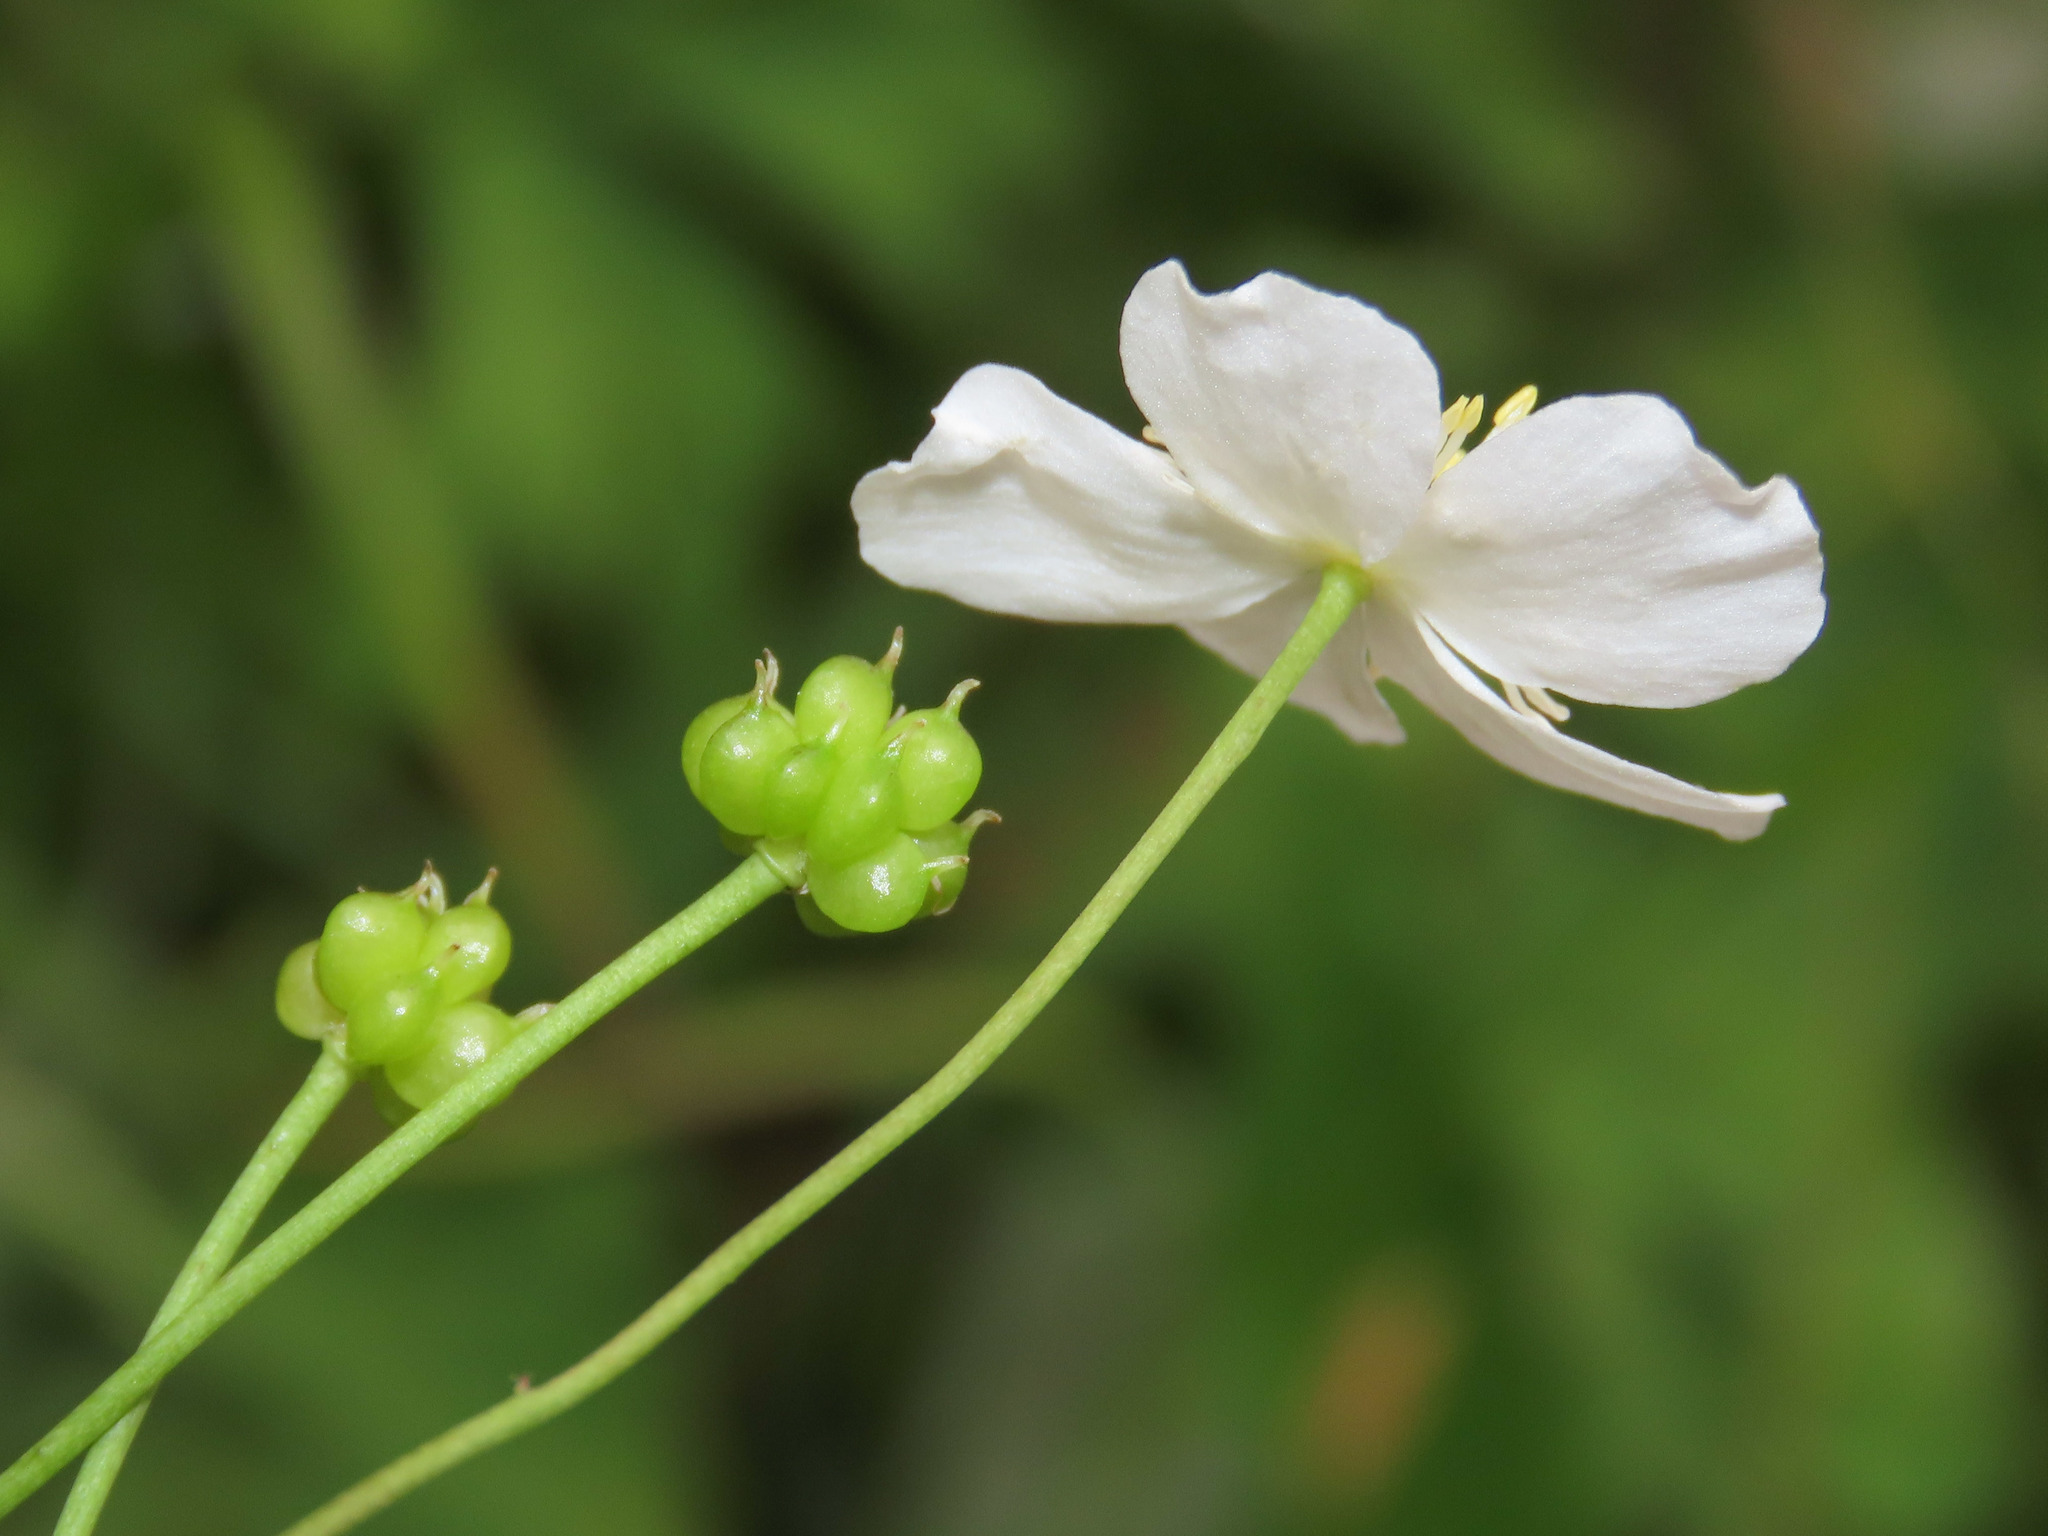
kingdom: Plantae
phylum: Tracheophyta
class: Magnoliopsida
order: Ranunculales
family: Ranunculaceae
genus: Ranunculus
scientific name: Ranunculus platanifolius
